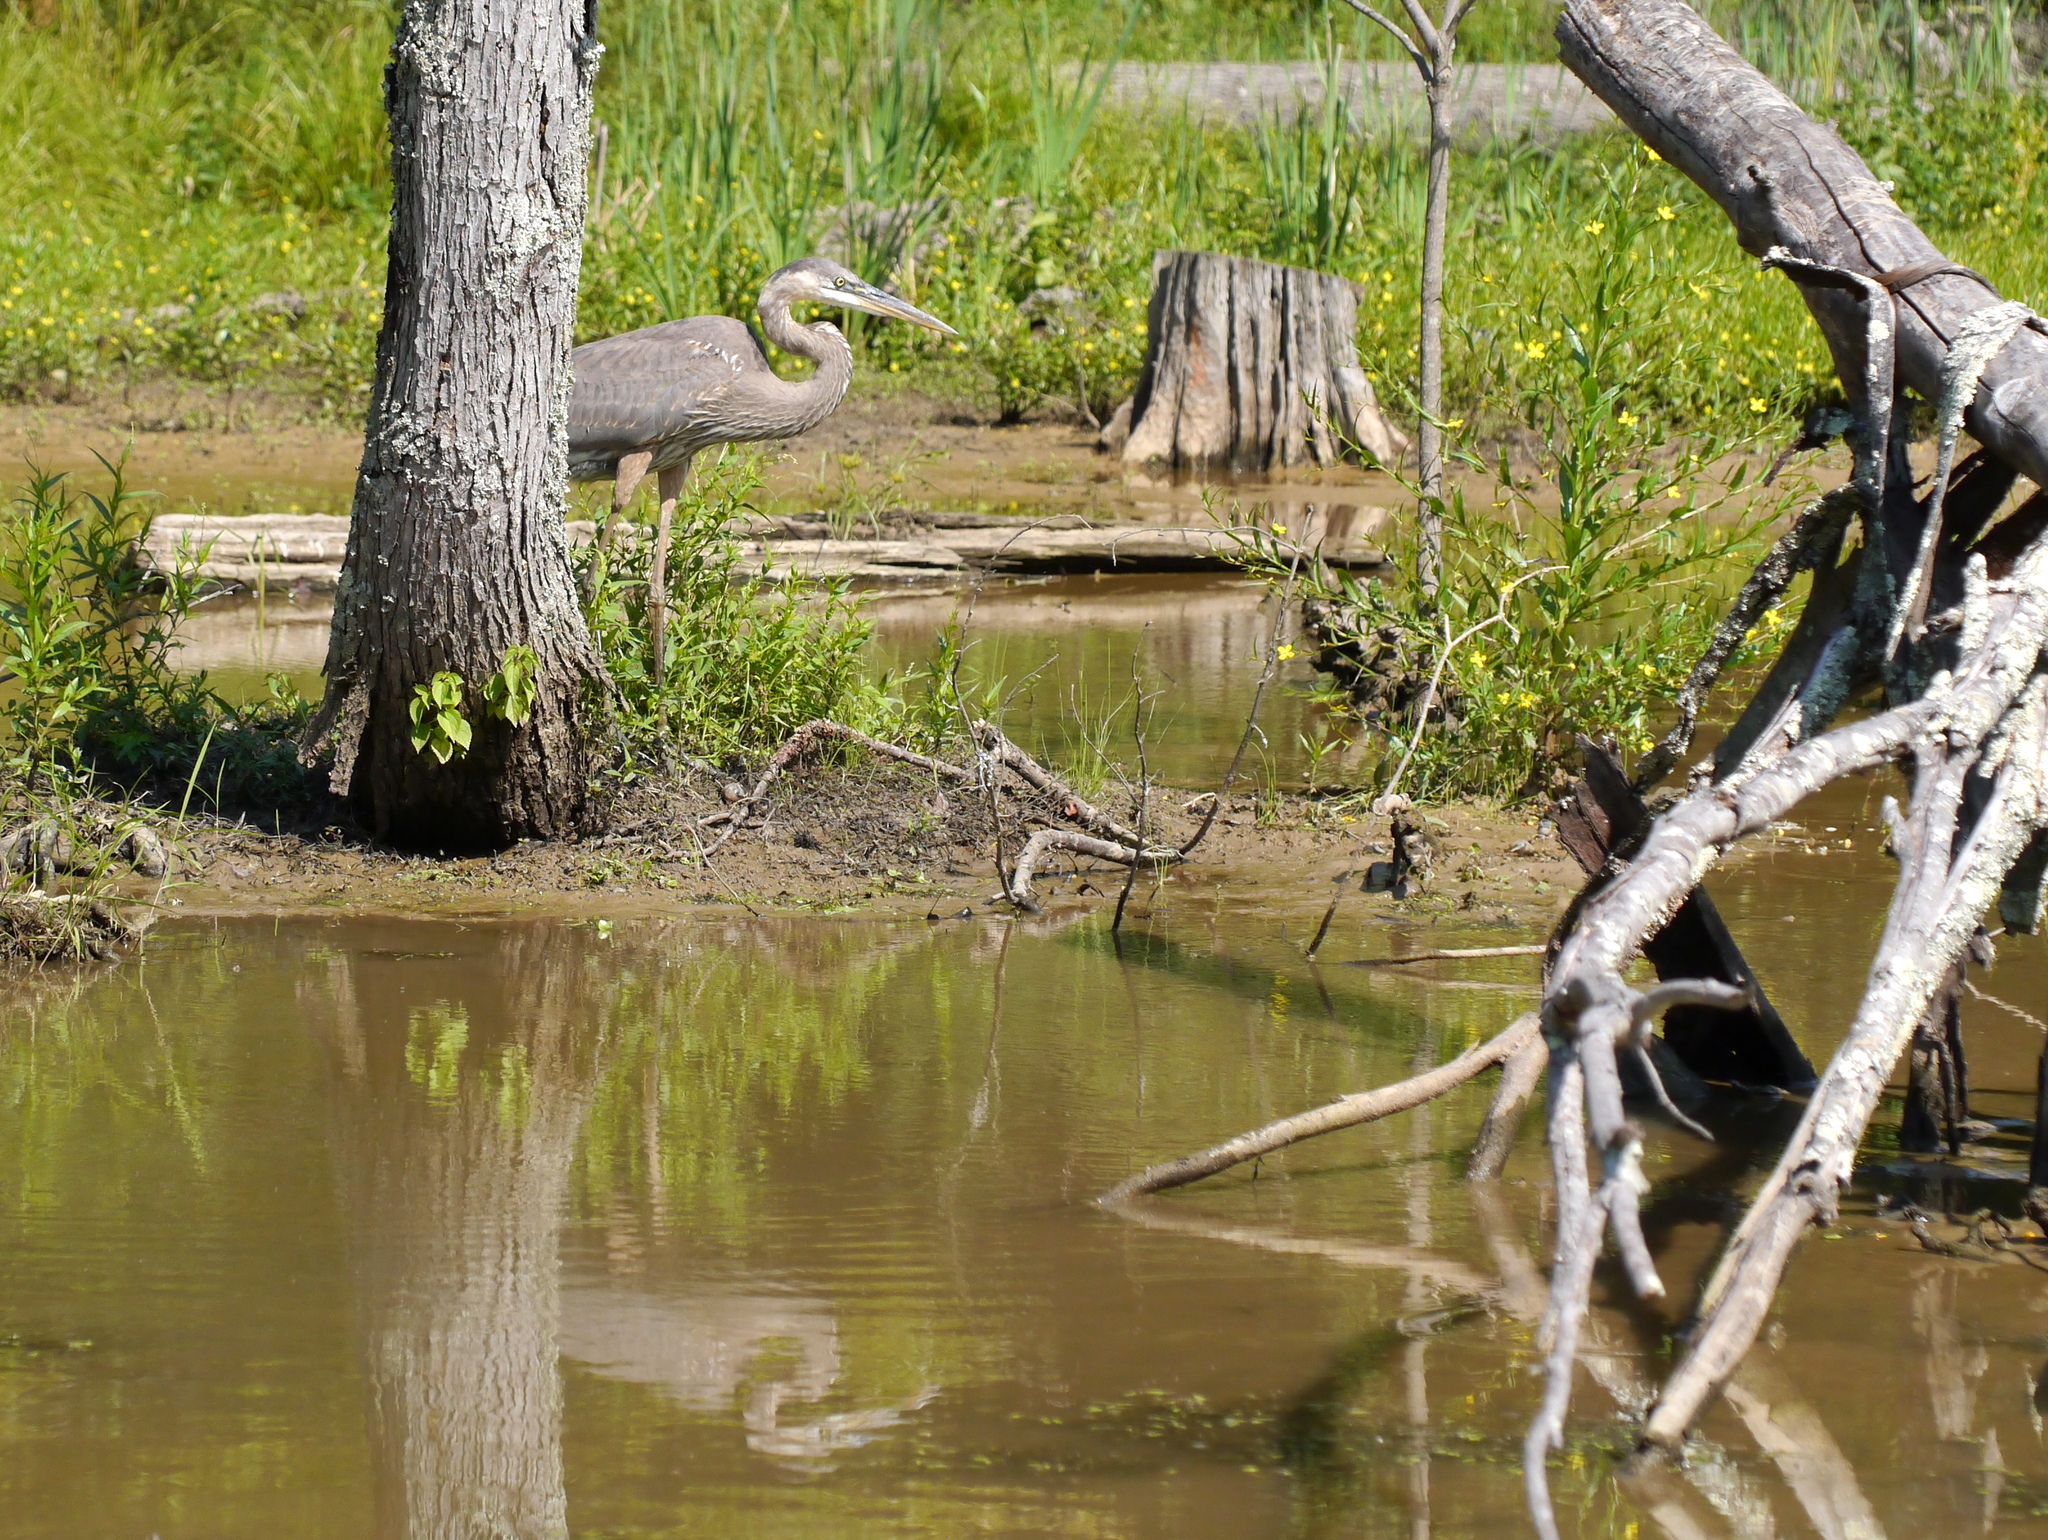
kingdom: Animalia
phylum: Chordata
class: Aves
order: Pelecaniformes
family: Ardeidae
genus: Ardea
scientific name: Ardea herodias
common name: Great blue heron
